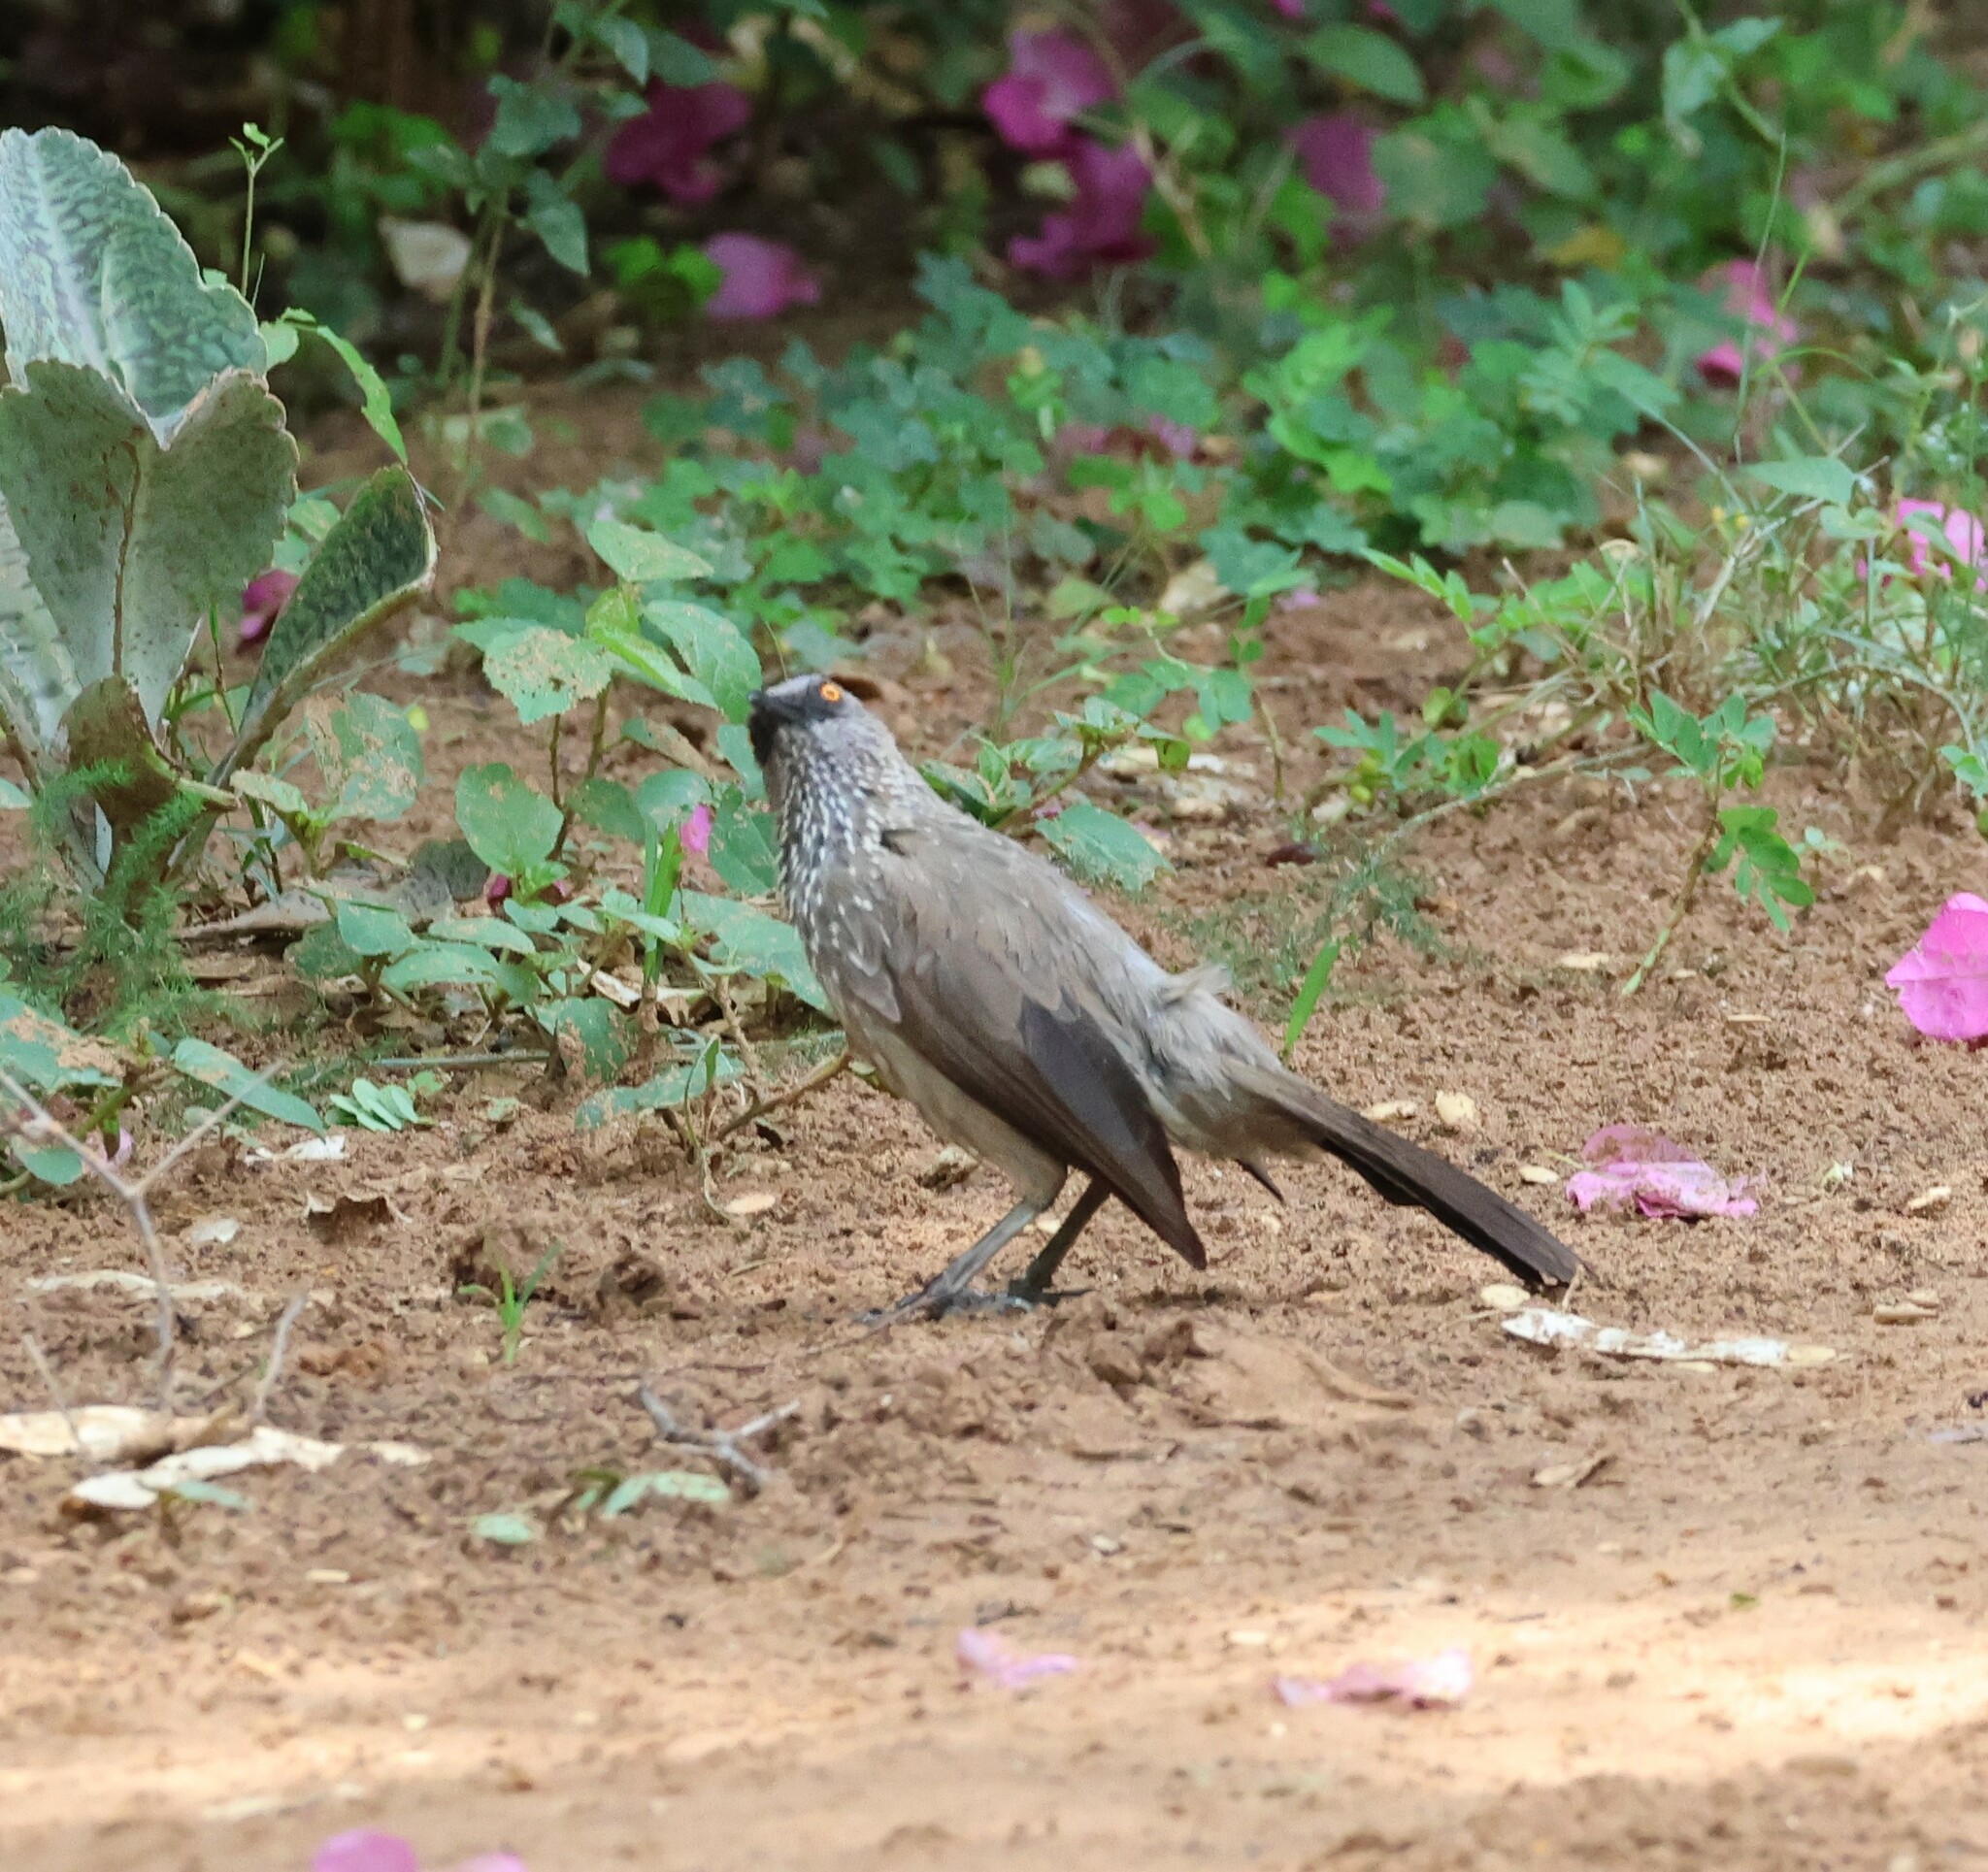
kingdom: Animalia
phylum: Chordata
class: Aves
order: Passeriformes
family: Leiothrichidae
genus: Turdoides
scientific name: Turdoides jardineii
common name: Arrow-marked babbler
